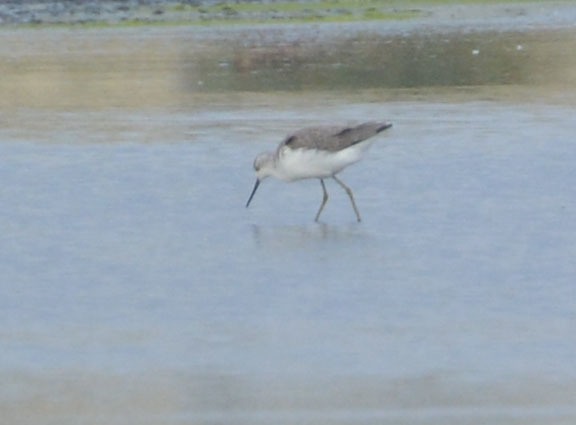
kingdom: Animalia
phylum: Chordata
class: Aves
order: Charadriiformes
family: Scolopacidae
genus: Tringa
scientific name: Tringa stagnatilis
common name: Marsh sandpiper
